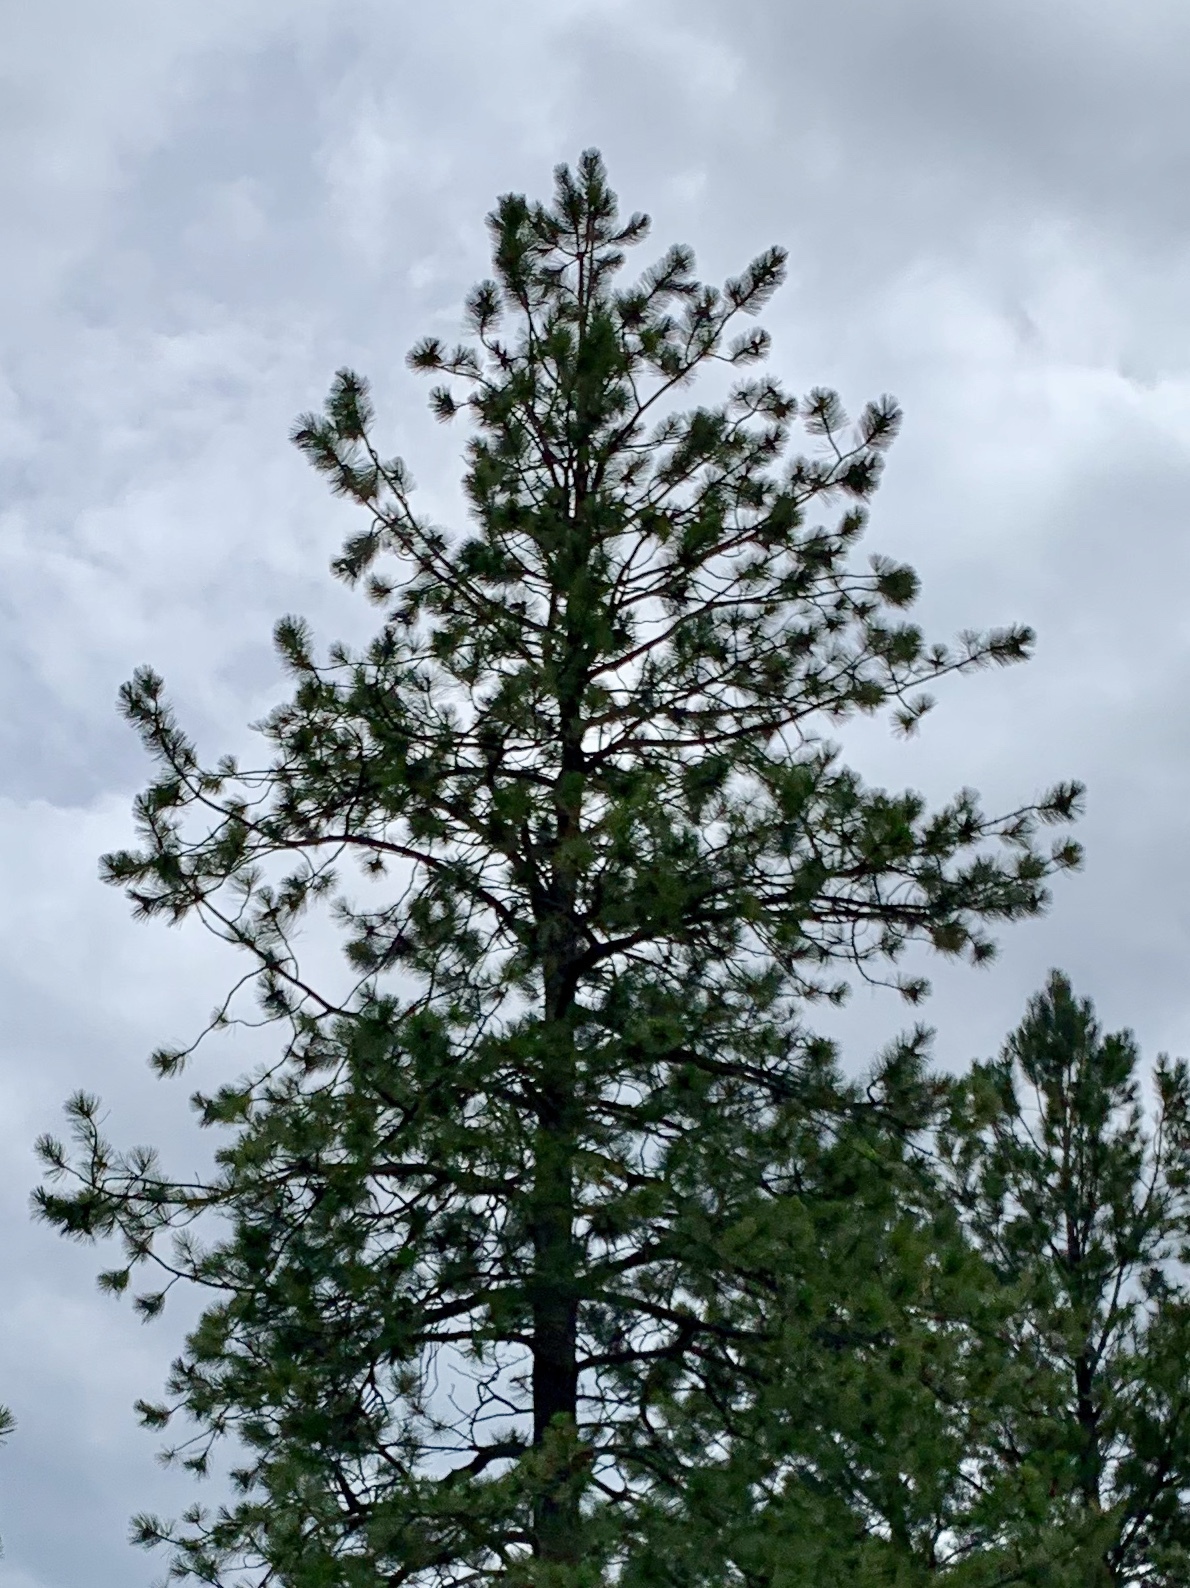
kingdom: Plantae
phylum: Tracheophyta
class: Pinopsida
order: Pinales
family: Pinaceae
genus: Pinus
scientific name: Pinus ponderosa
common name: Western yellow-pine
